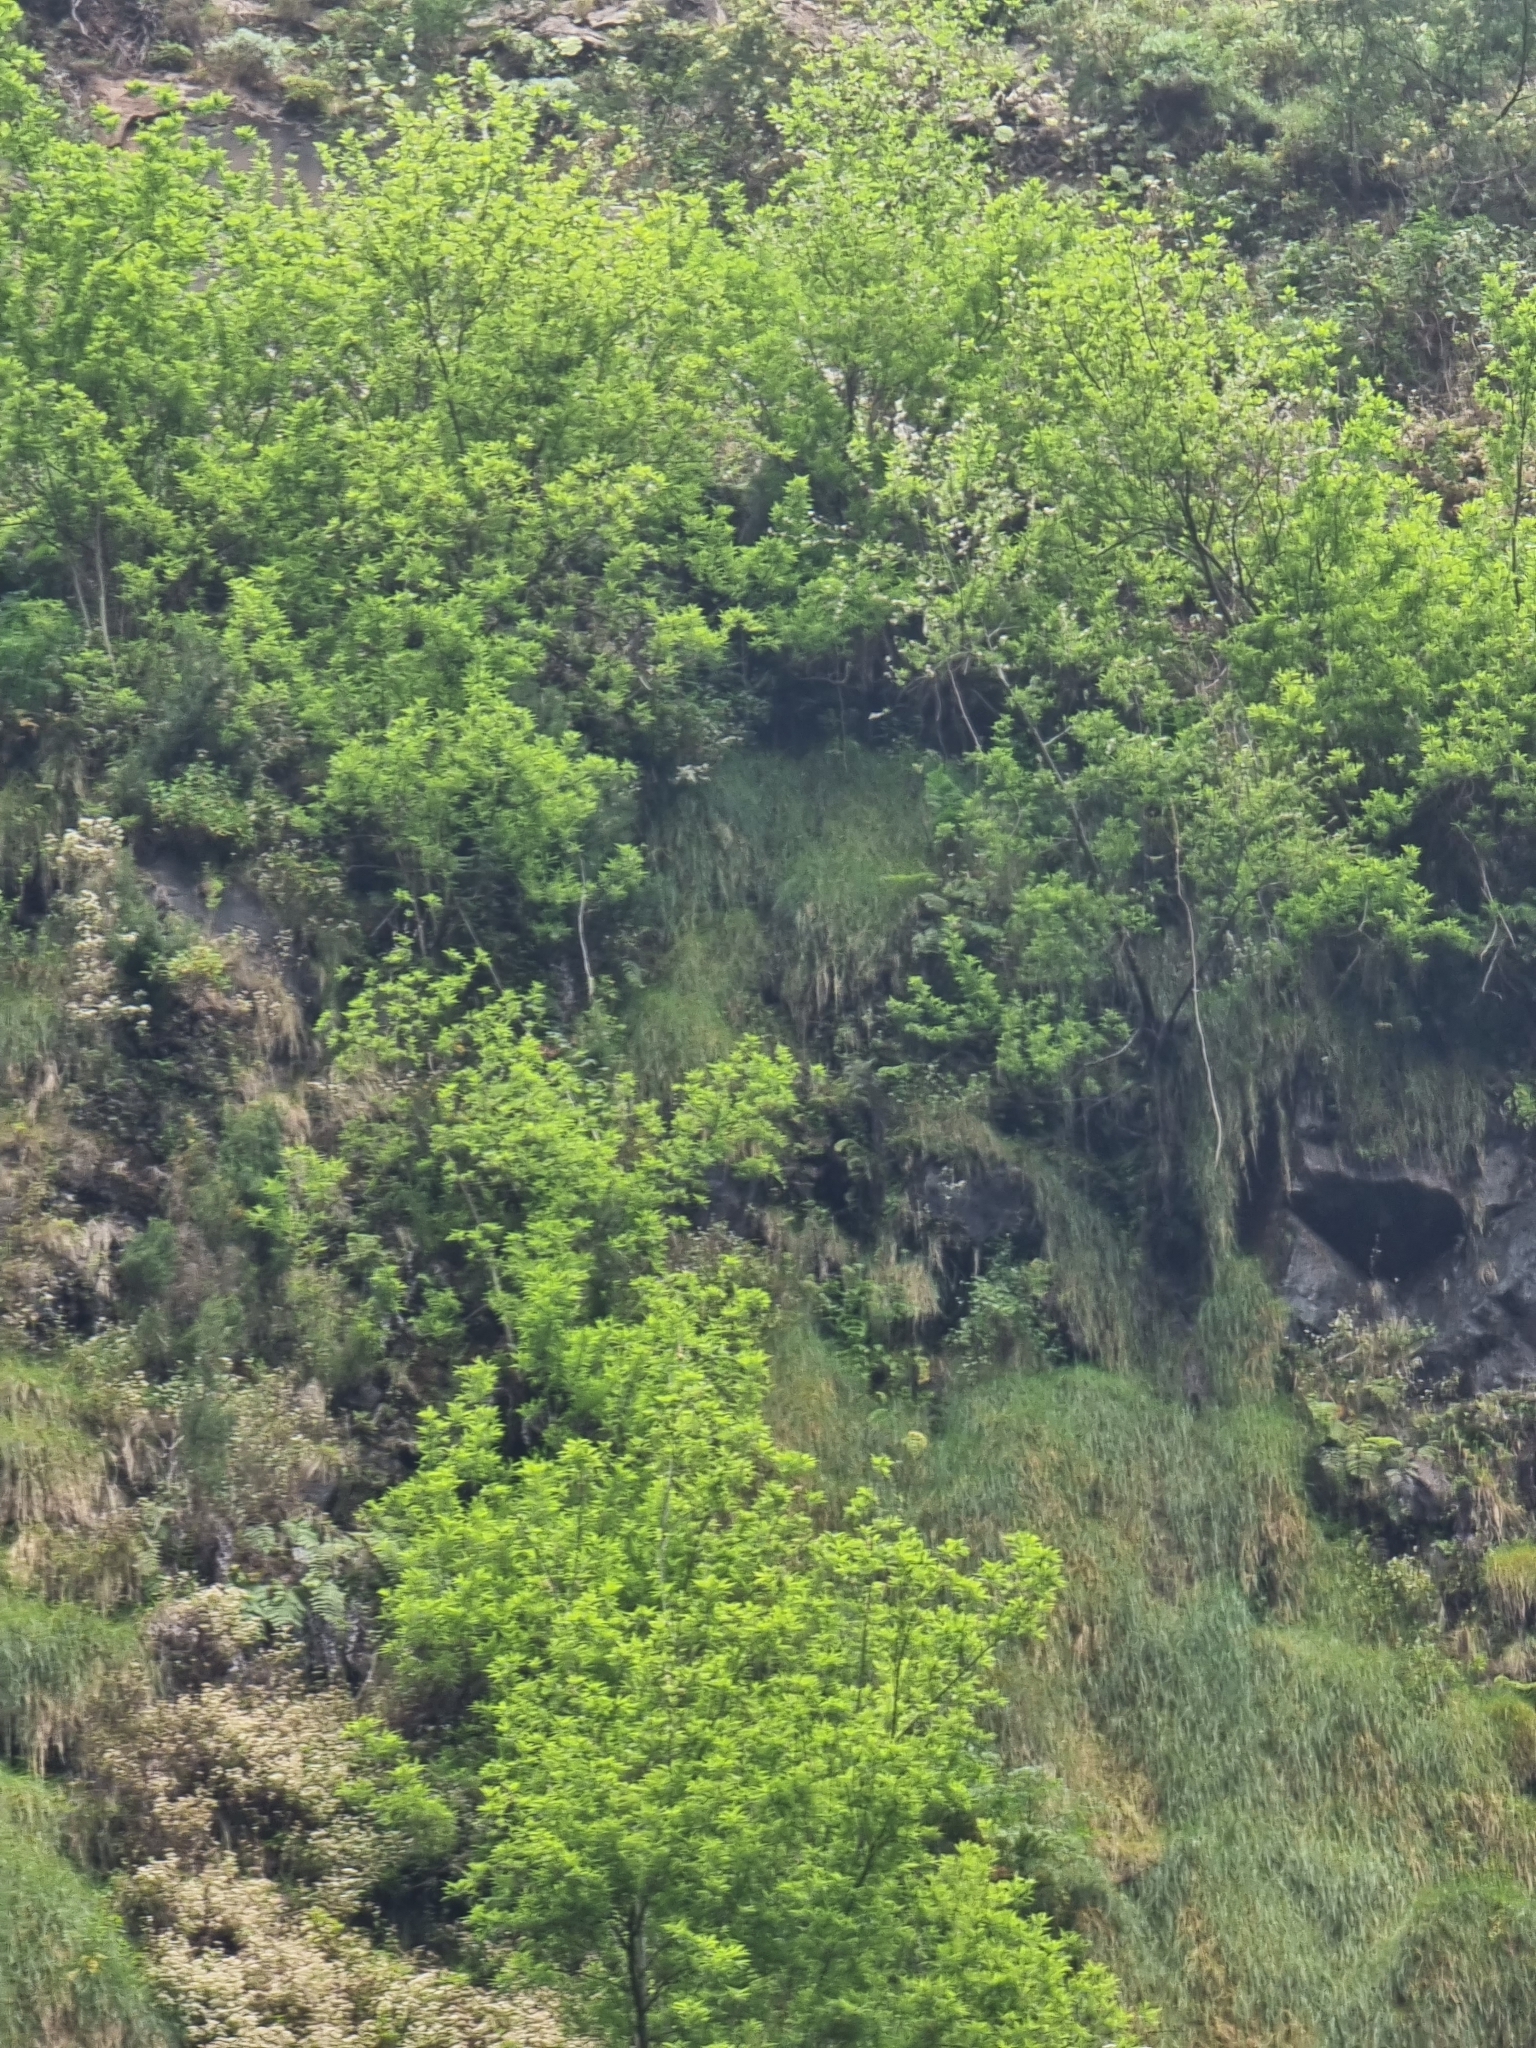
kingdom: Plantae
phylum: Tracheophyta
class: Magnoliopsida
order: Malpighiales
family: Salicaceae
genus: Salix
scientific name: Salix canariensis
